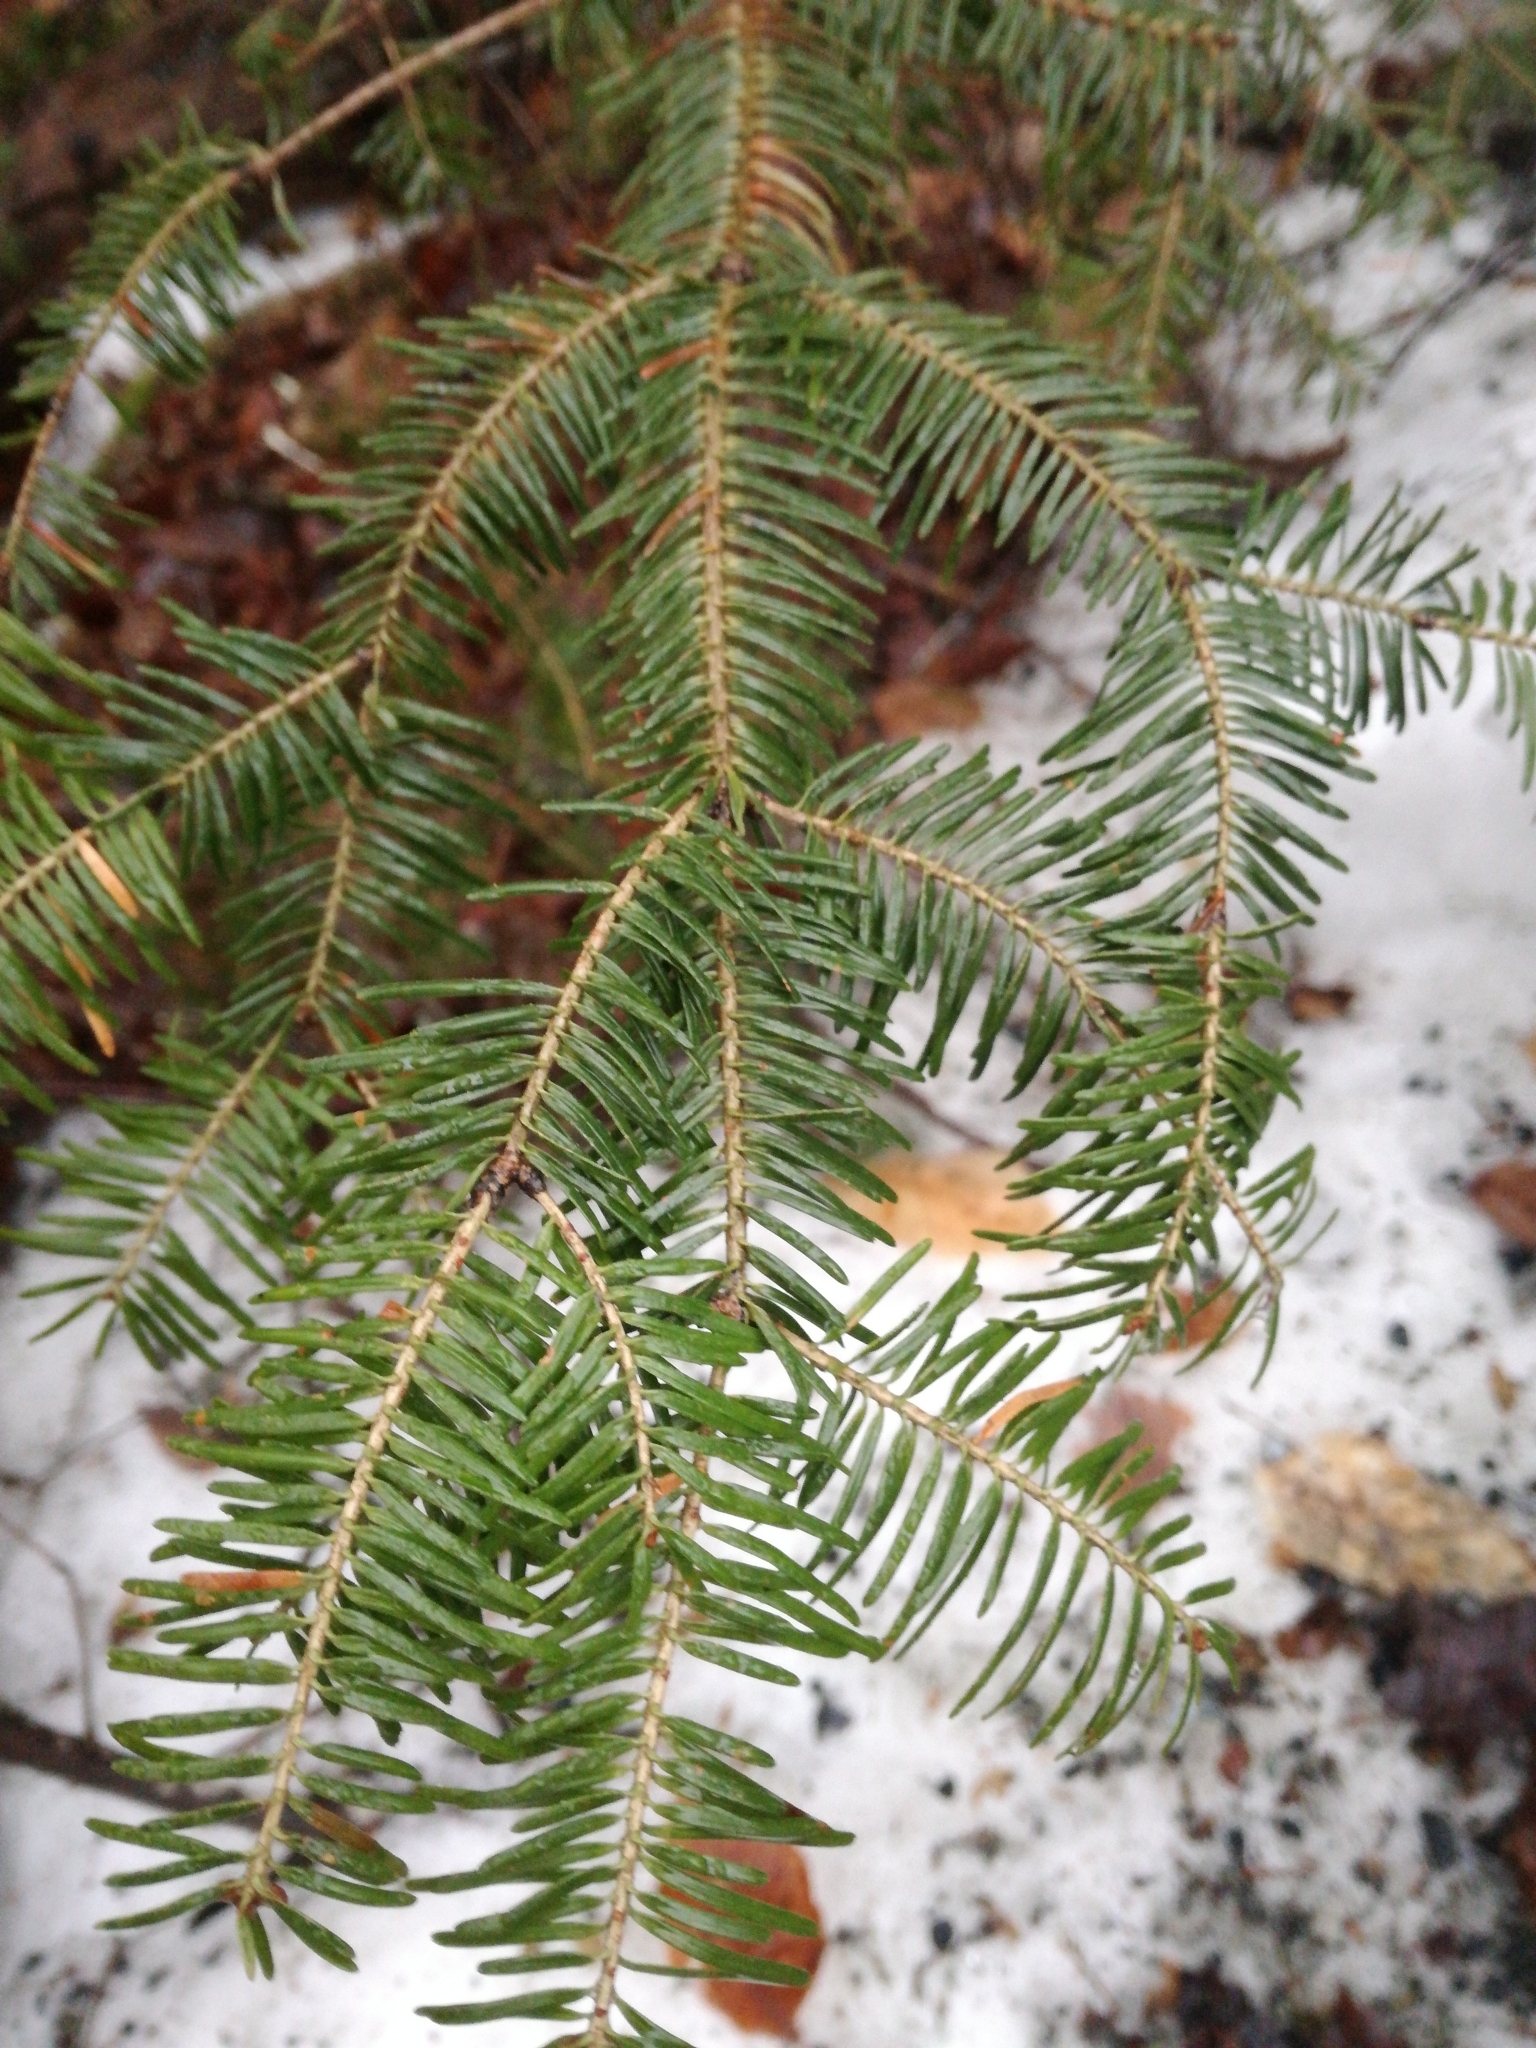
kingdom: Plantae
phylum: Tracheophyta
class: Pinopsida
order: Pinales
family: Pinaceae
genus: Abies
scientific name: Abies balsamea
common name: Balsam fir
